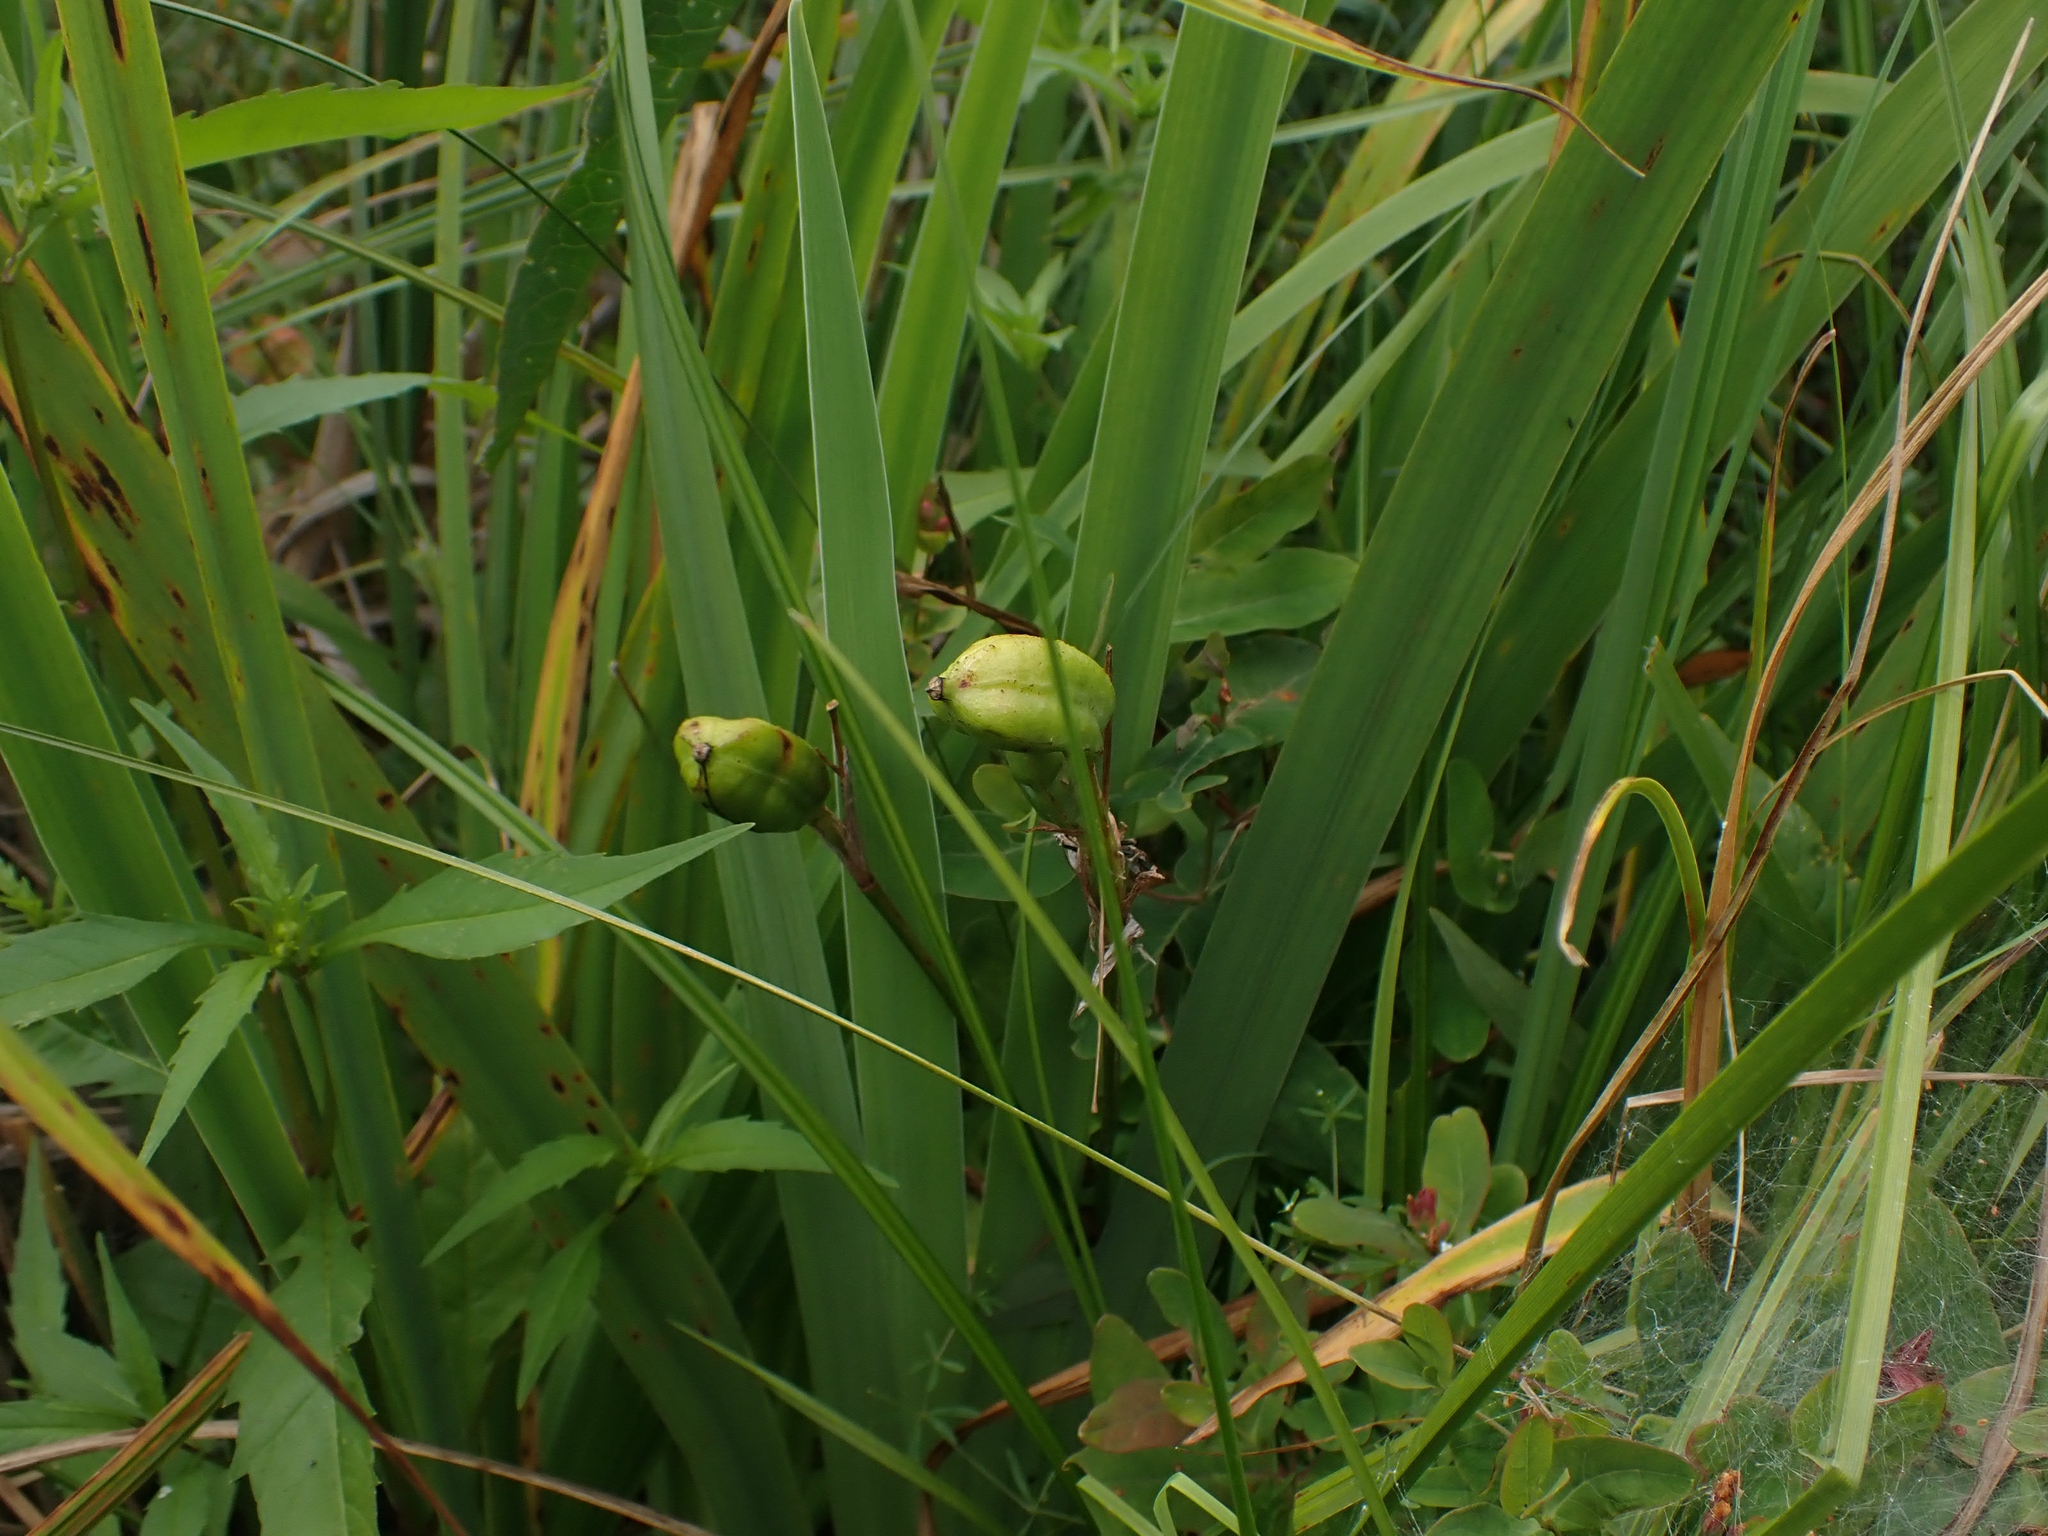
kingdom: Plantae
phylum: Tracheophyta
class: Liliopsida
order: Asparagales
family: Iridaceae
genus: Iris
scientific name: Iris versicolor
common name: Purple iris
